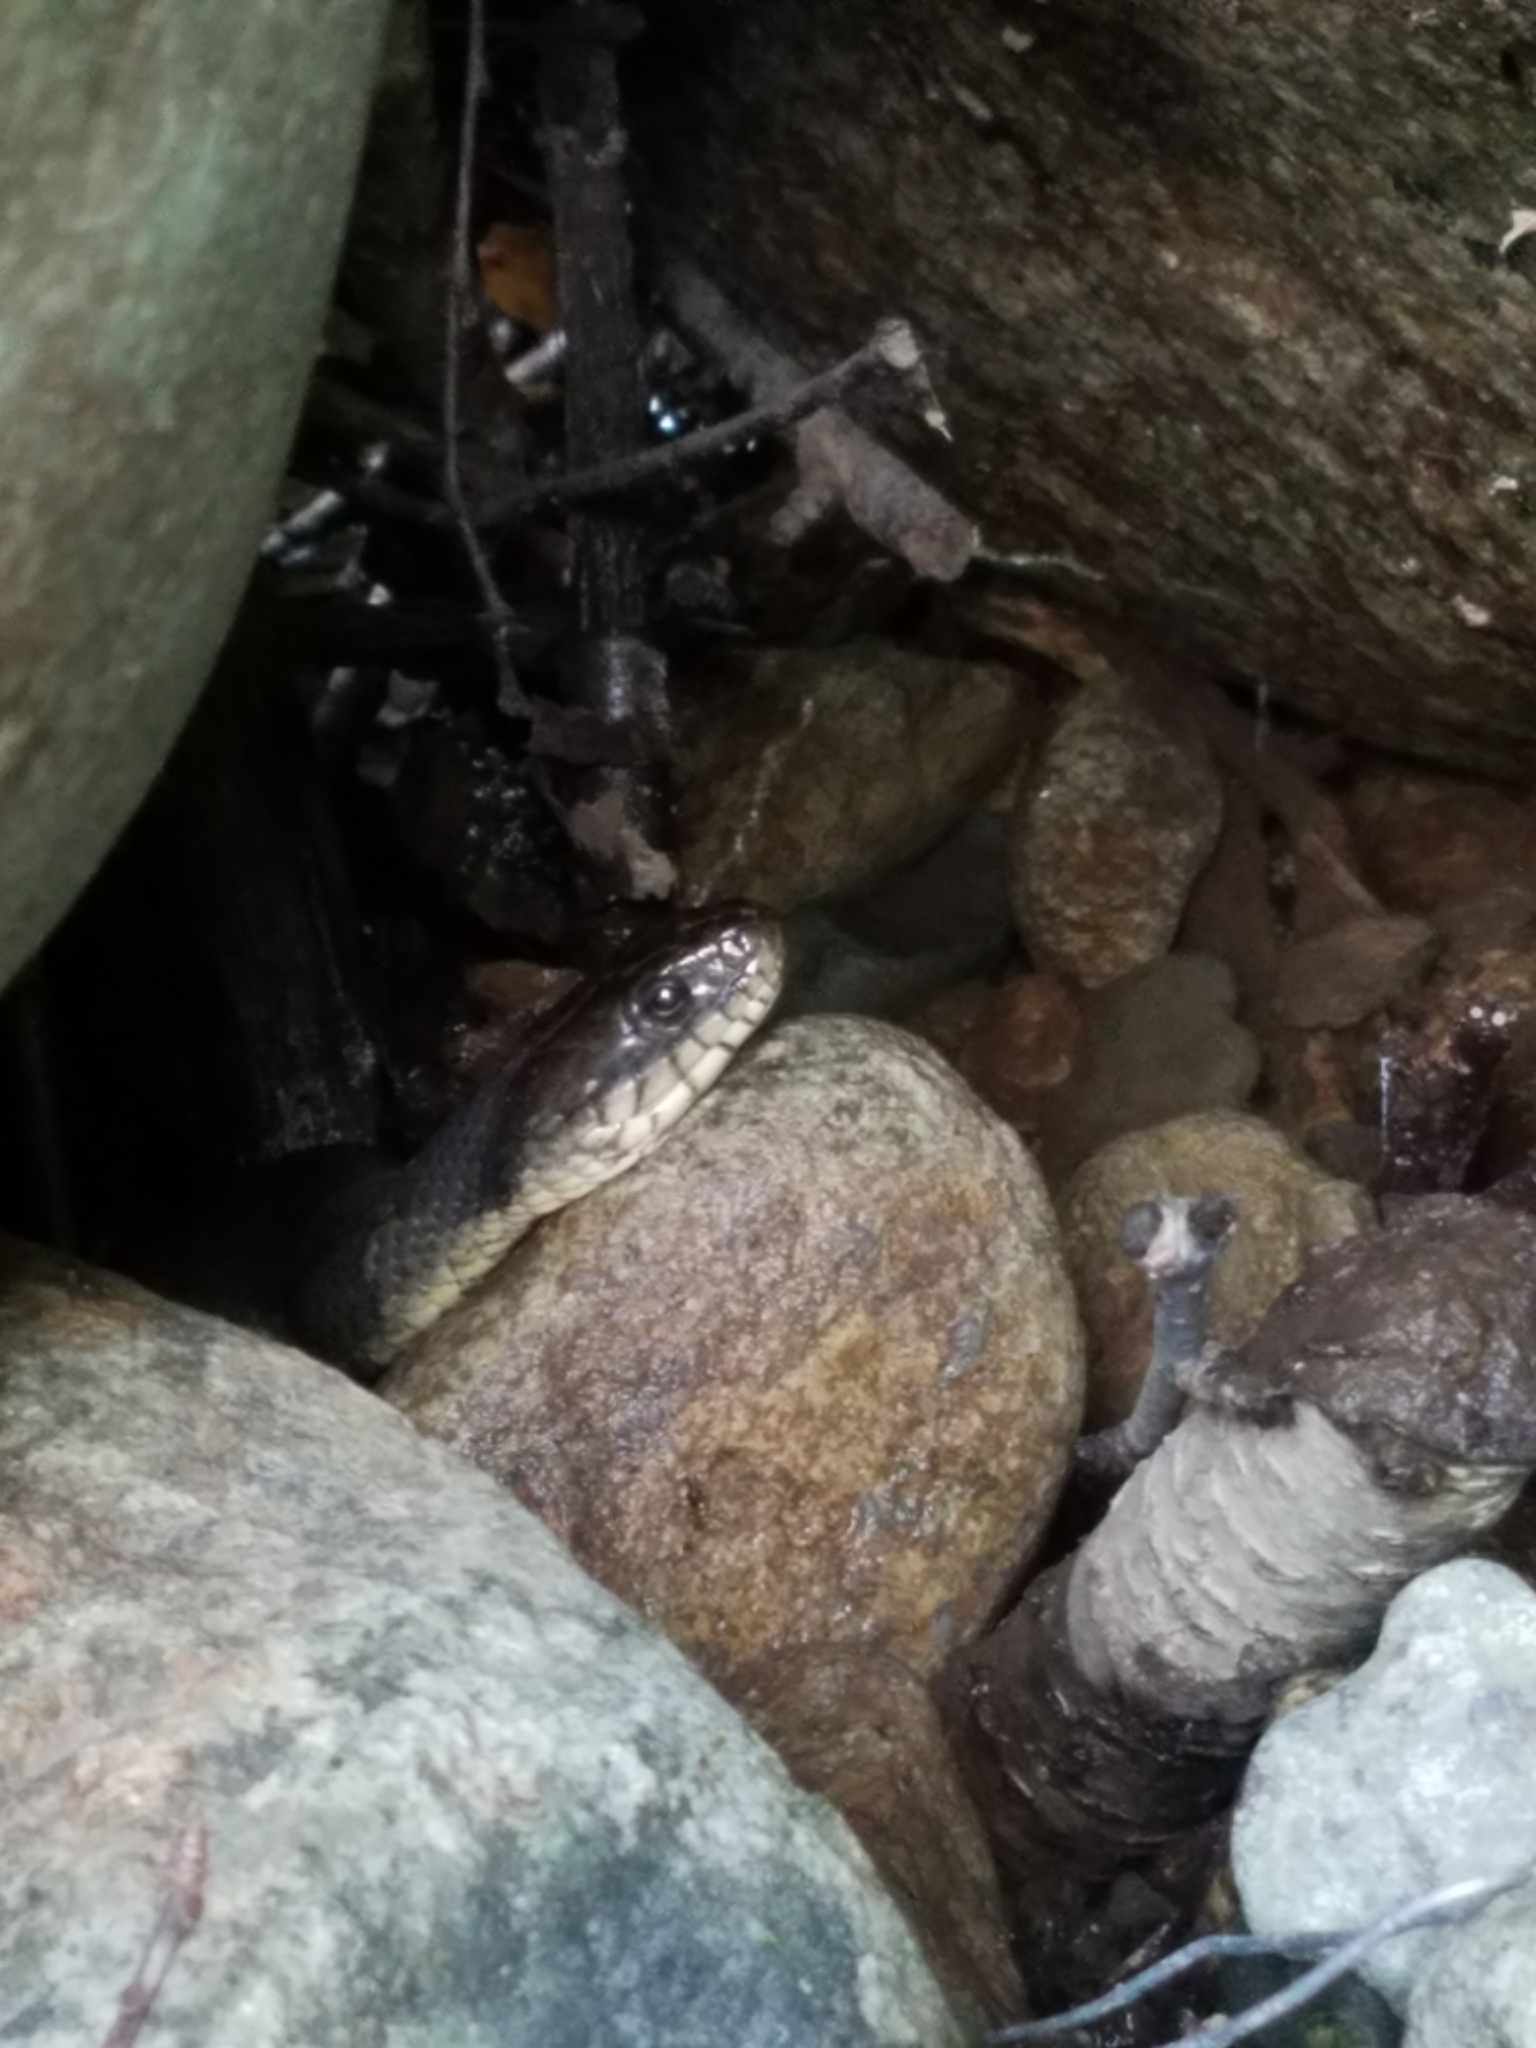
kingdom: Animalia
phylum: Chordata
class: Squamata
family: Colubridae
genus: Nerodia
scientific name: Nerodia sipedon
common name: Northern water snake
